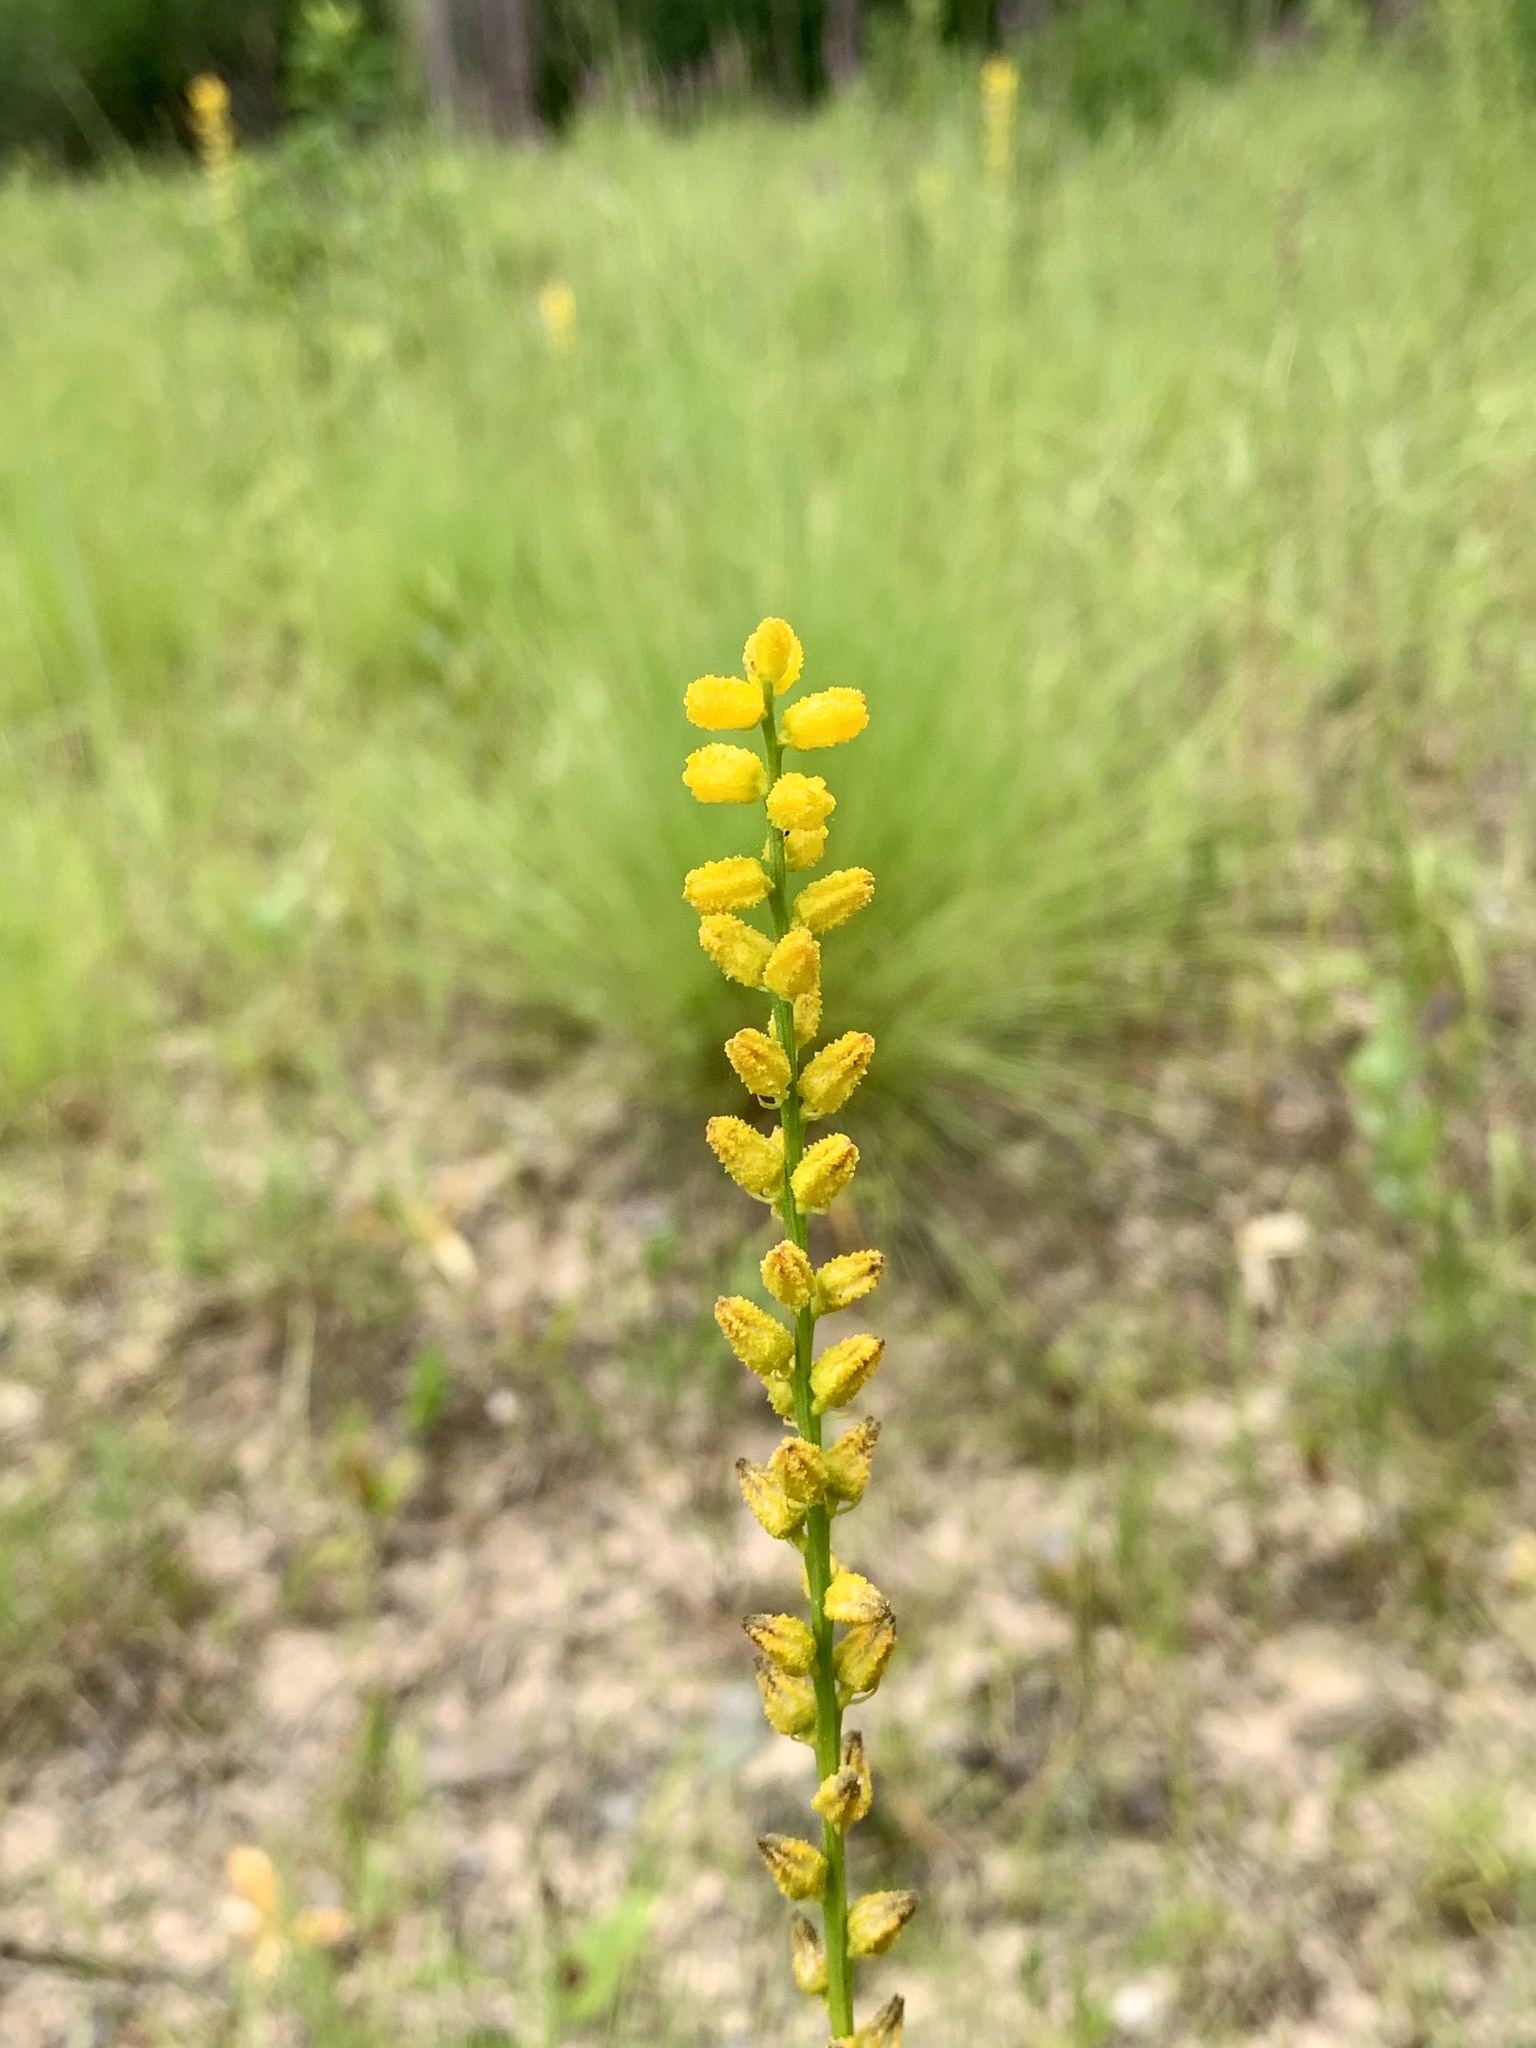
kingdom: Plantae
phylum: Tracheophyta
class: Liliopsida
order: Dioscoreales
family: Nartheciaceae
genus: Aletris
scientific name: Aletris aurea
